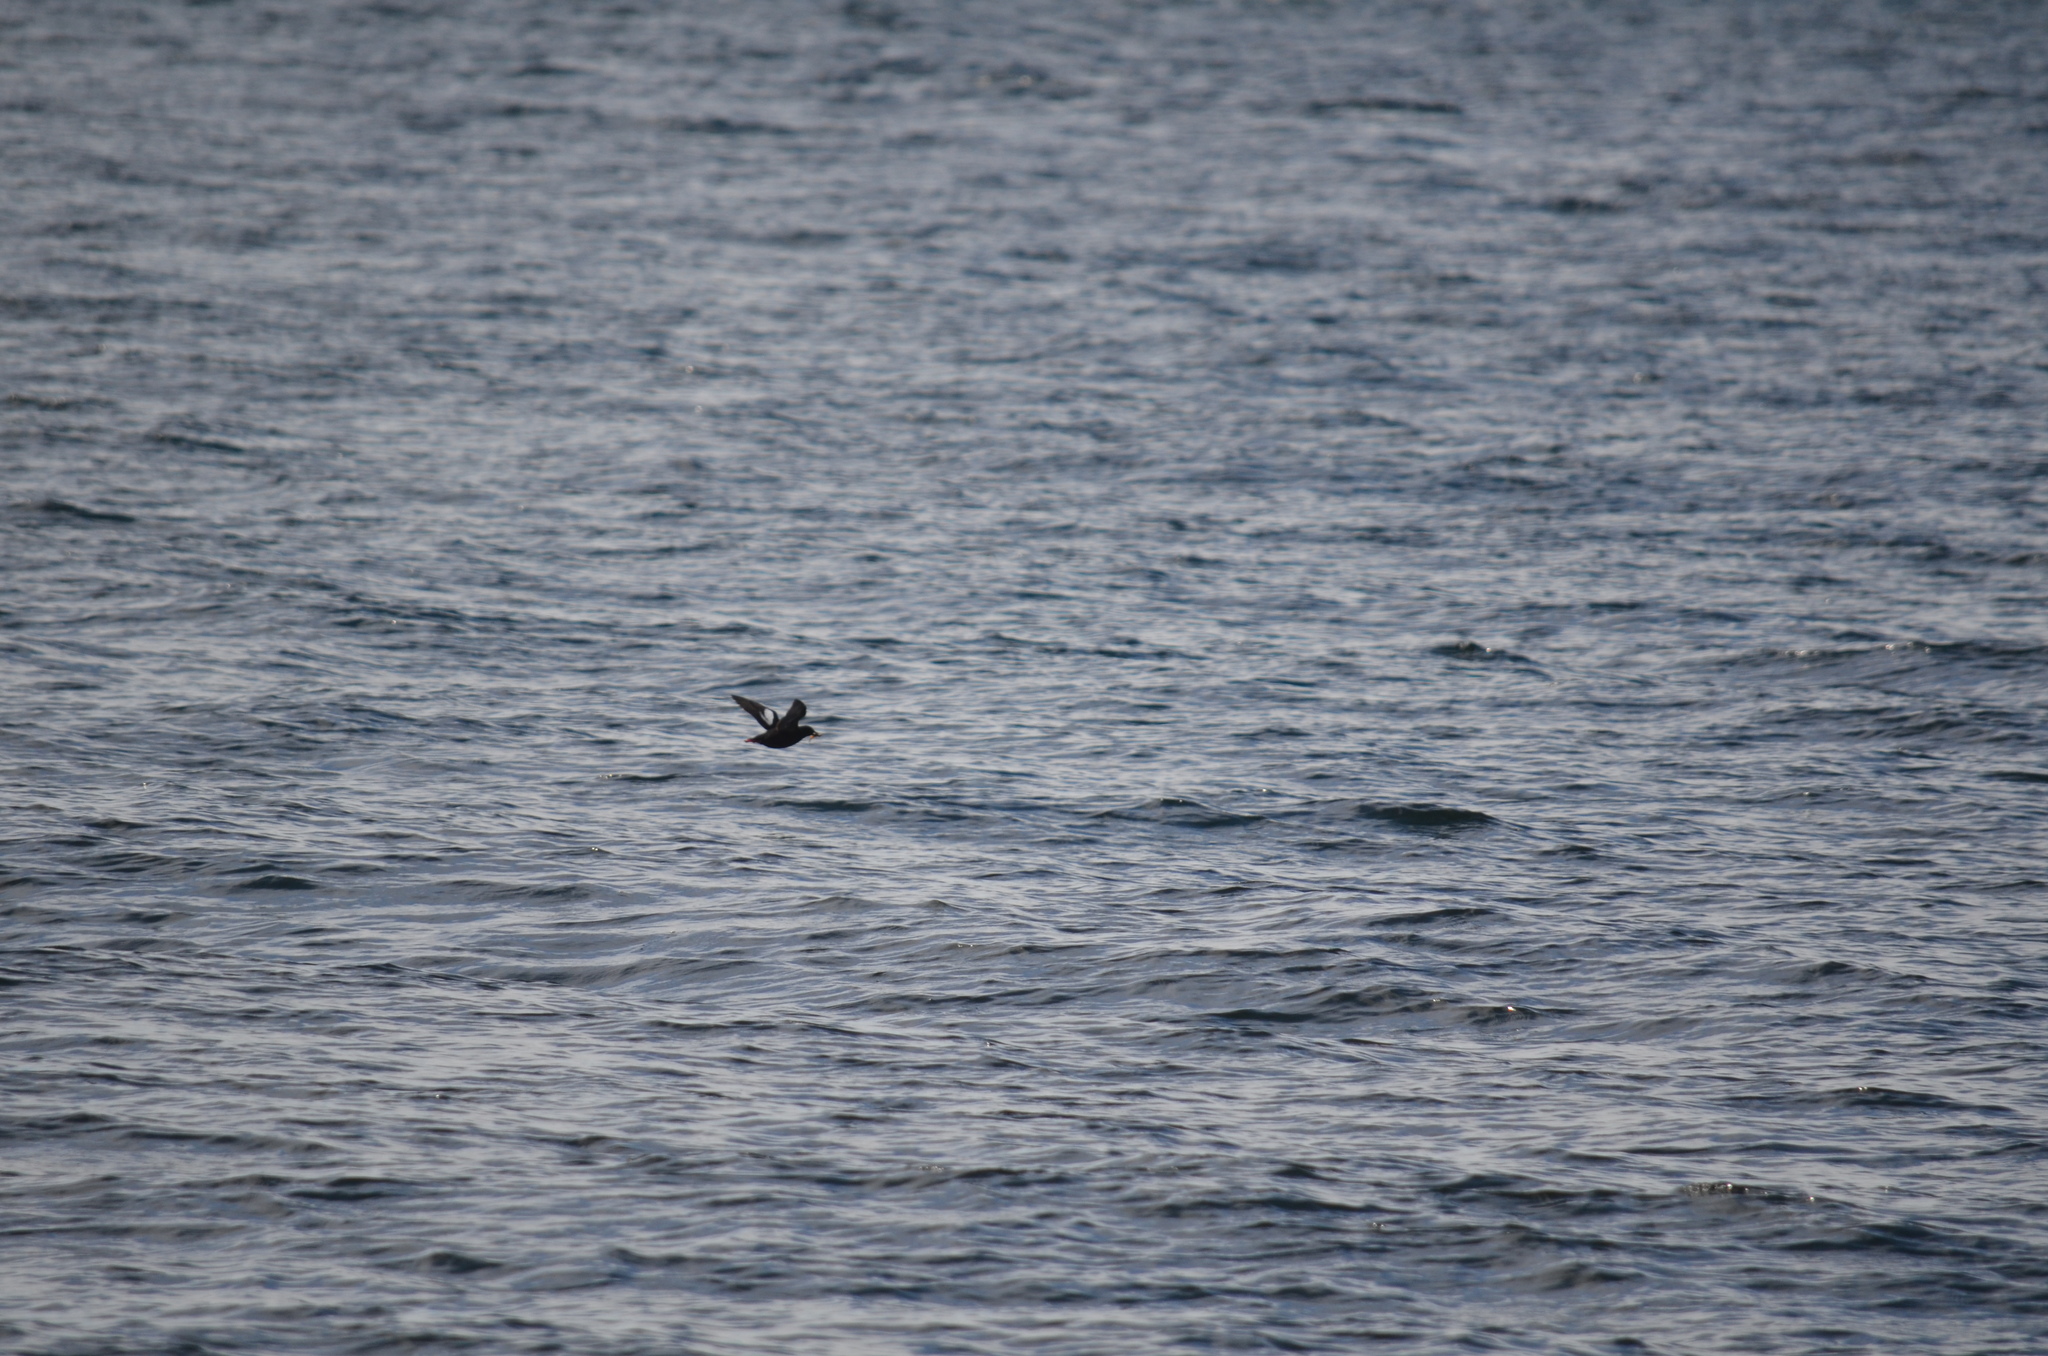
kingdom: Animalia
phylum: Chordata
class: Aves
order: Charadriiformes
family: Alcidae
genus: Cepphus
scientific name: Cepphus columba
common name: Pigeon guillemot
